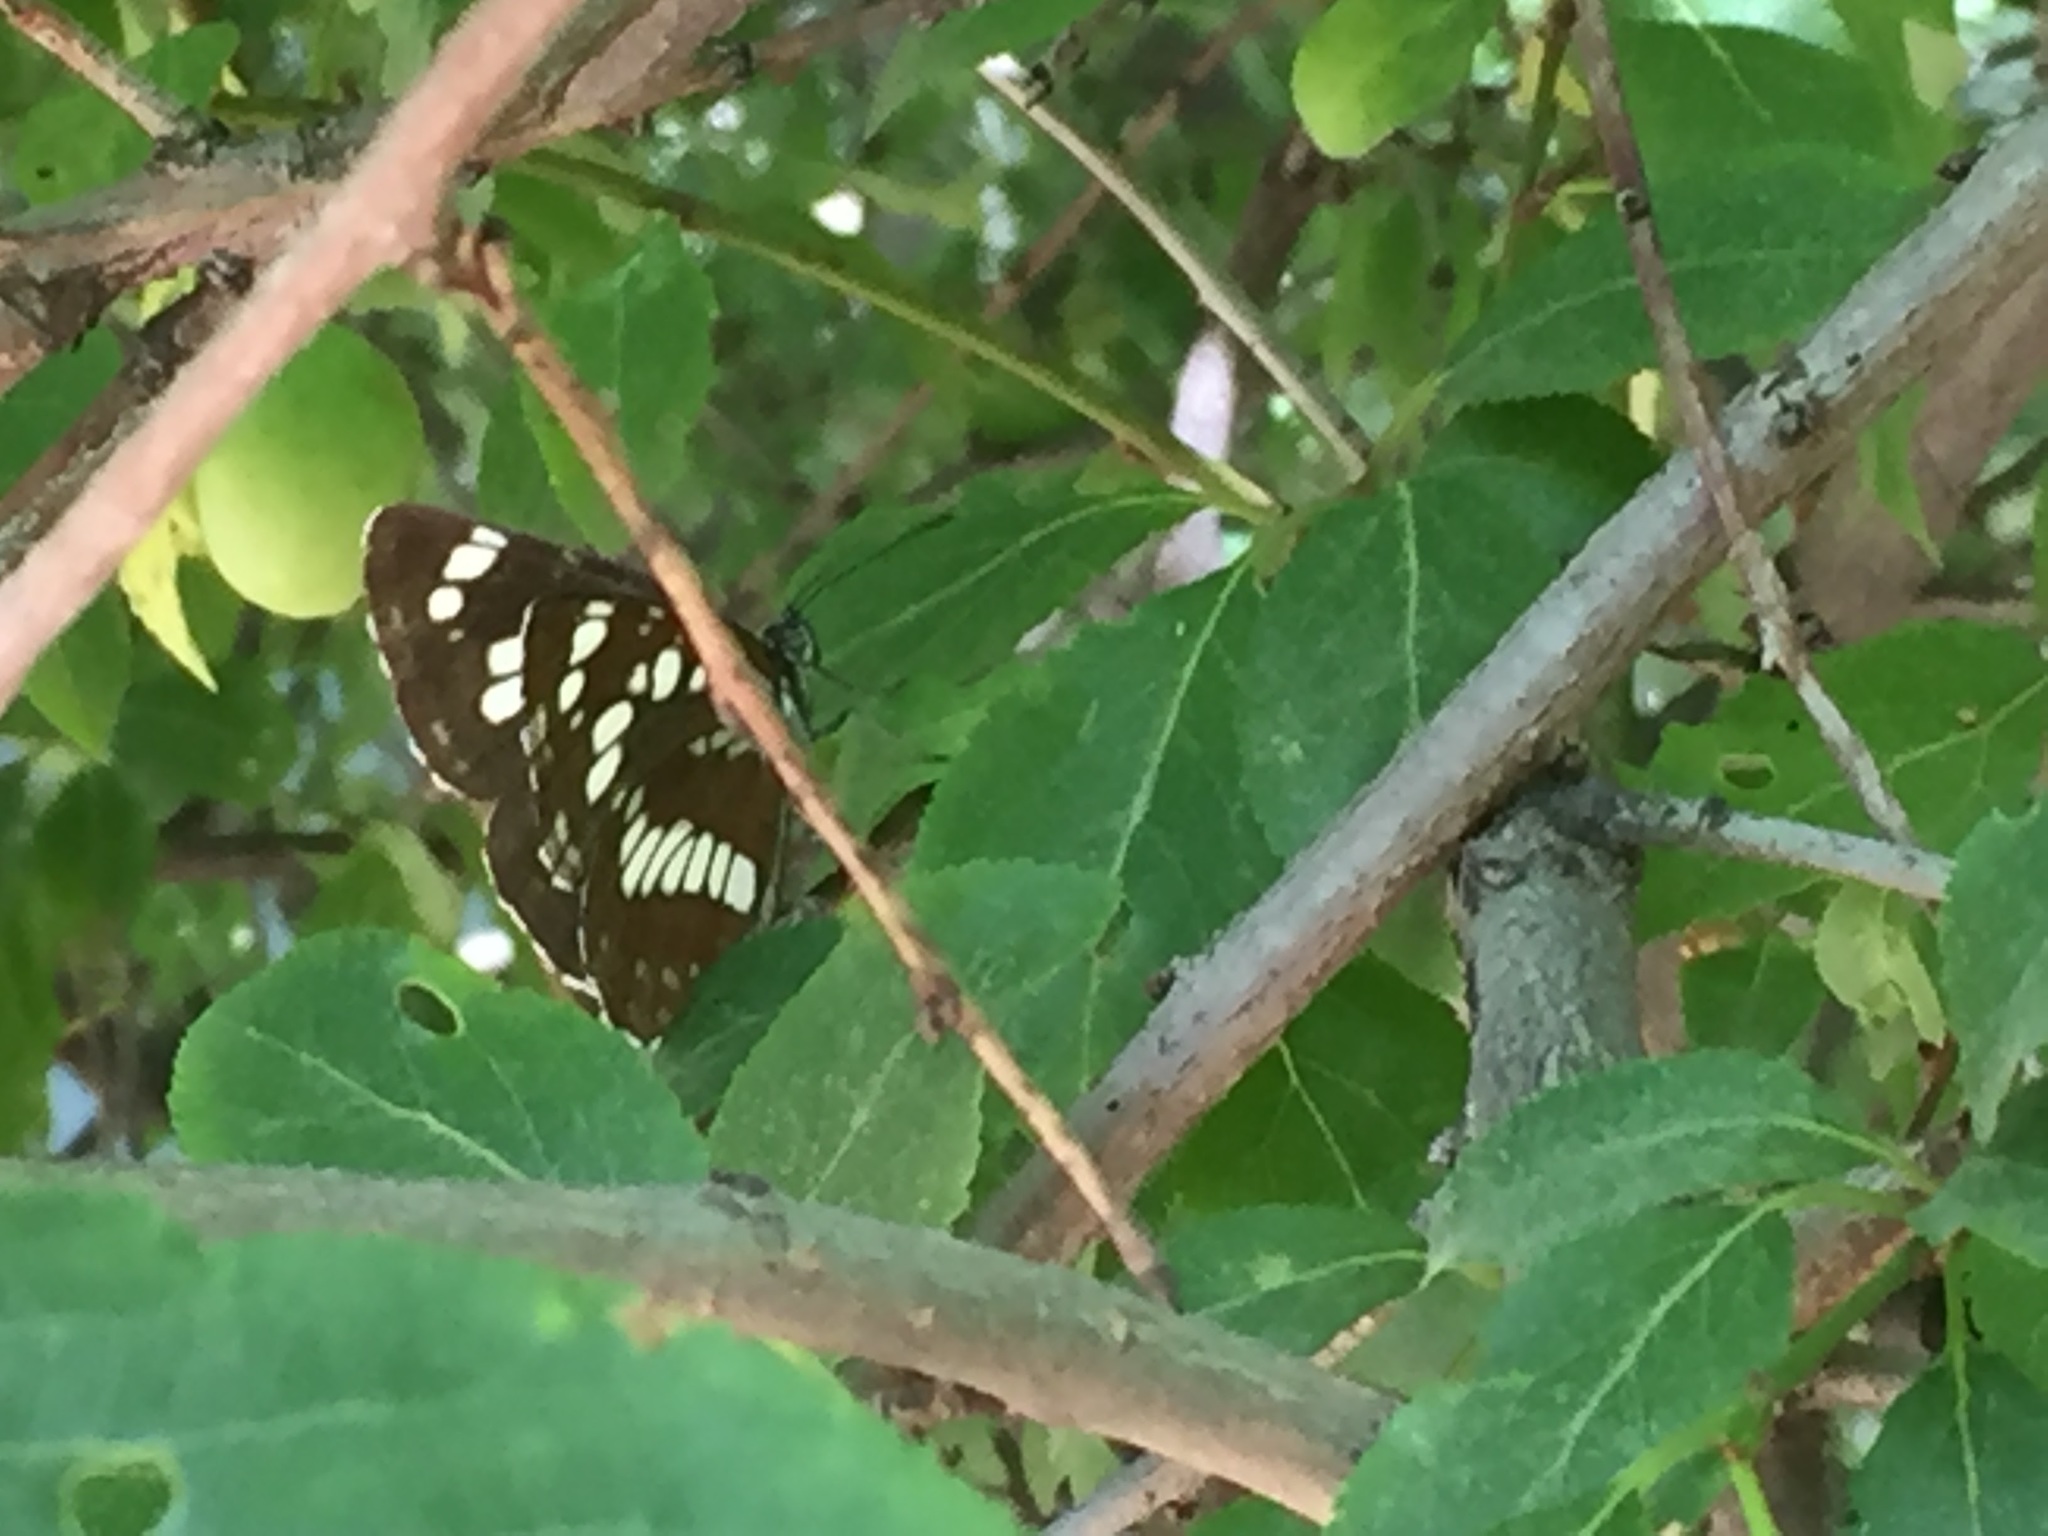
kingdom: Animalia
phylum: Arthropoda
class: Insecta
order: Lepidoptera
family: Nymphalidae
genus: Neptis
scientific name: Neptis rivularis
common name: Hungarian glider
